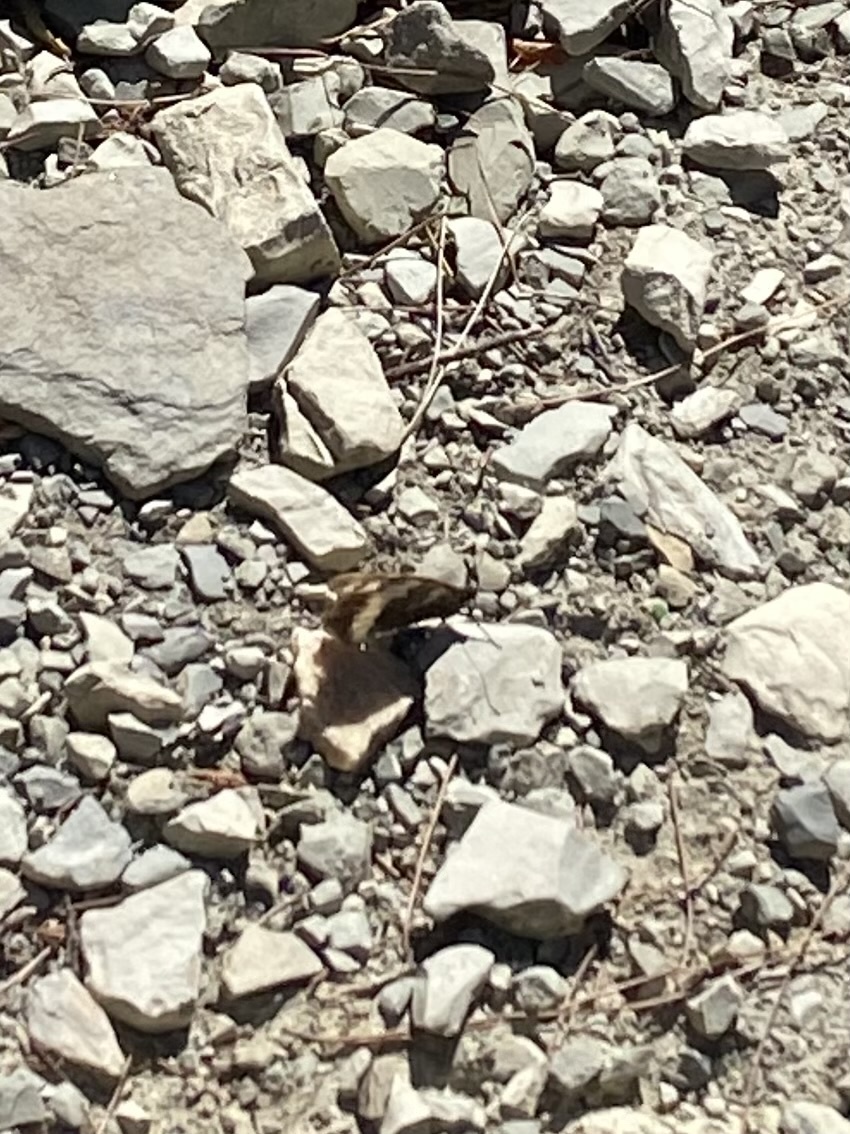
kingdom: Animalia
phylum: Arthropoda
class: Insecta
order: Lepidoptera
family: Lycaenidae
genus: Loweia
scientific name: Loweia tityrus
